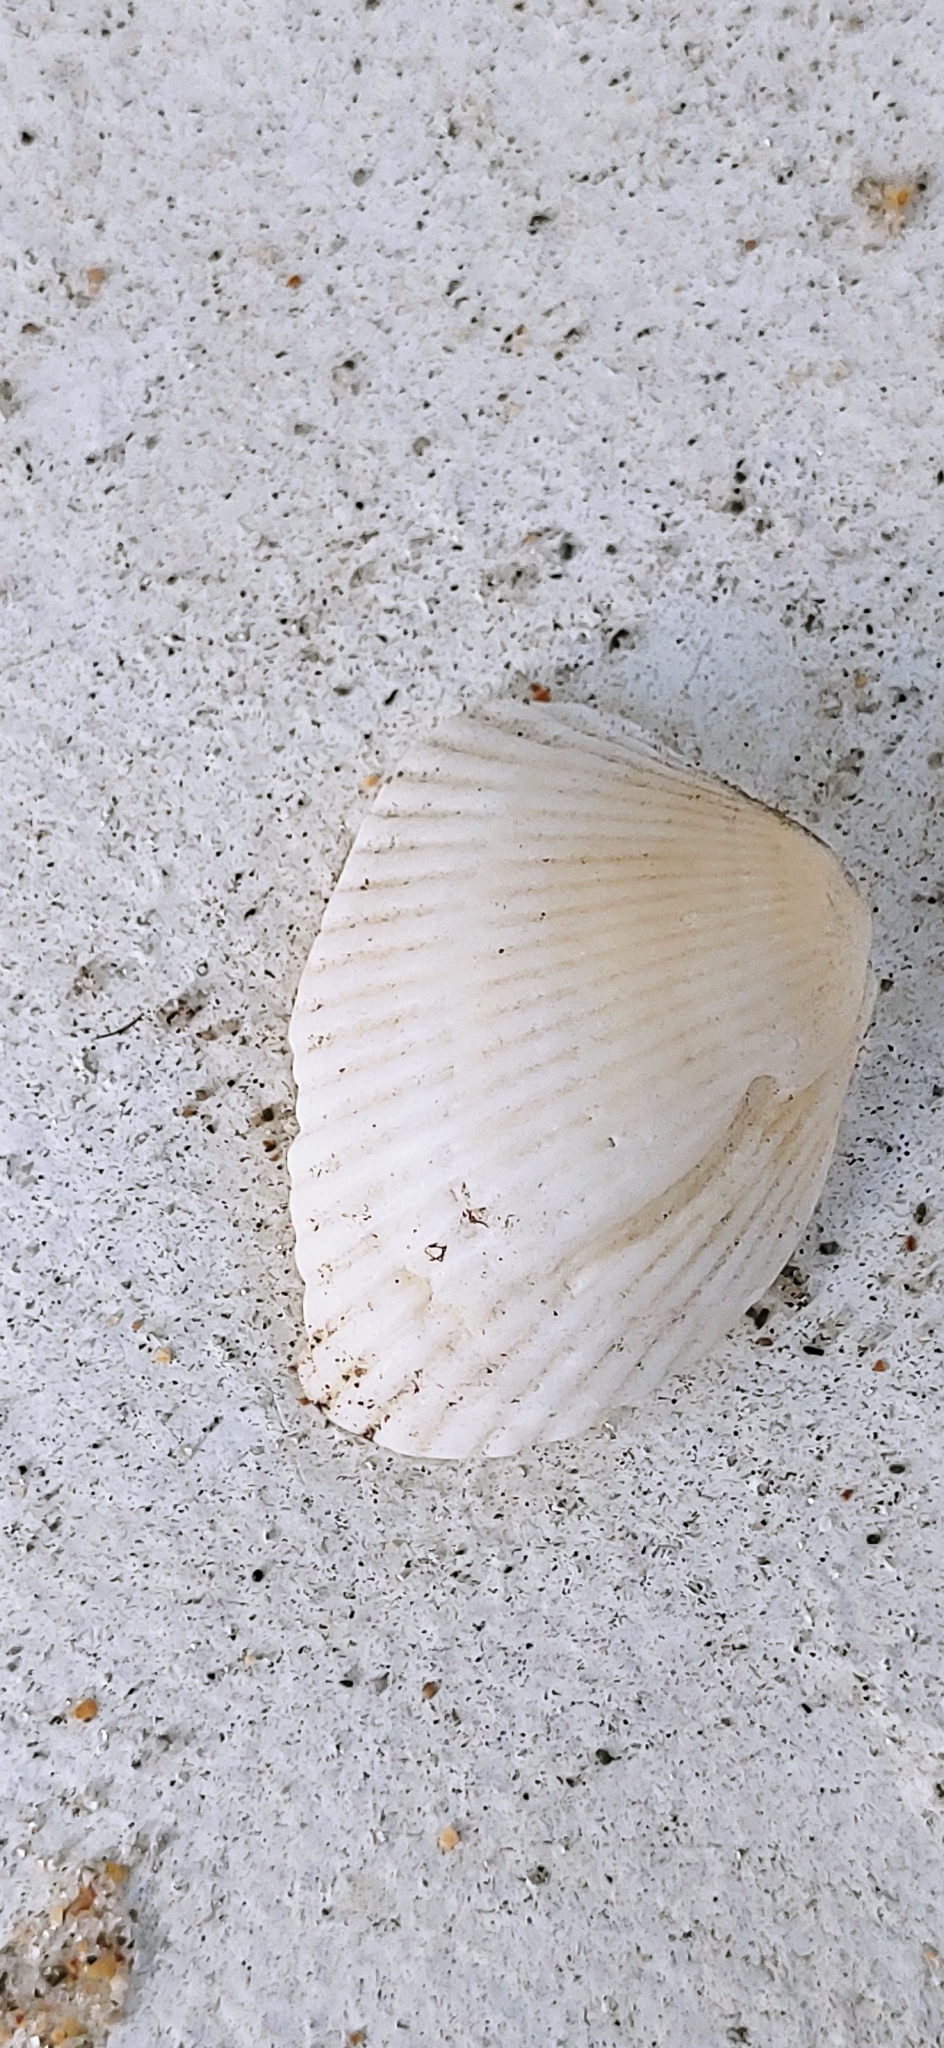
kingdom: Animalia
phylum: Mollusca
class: Bivalvia
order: Arcida
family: Arcidae
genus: Lunarca
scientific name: Lunarca ovalis
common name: Blood ark
